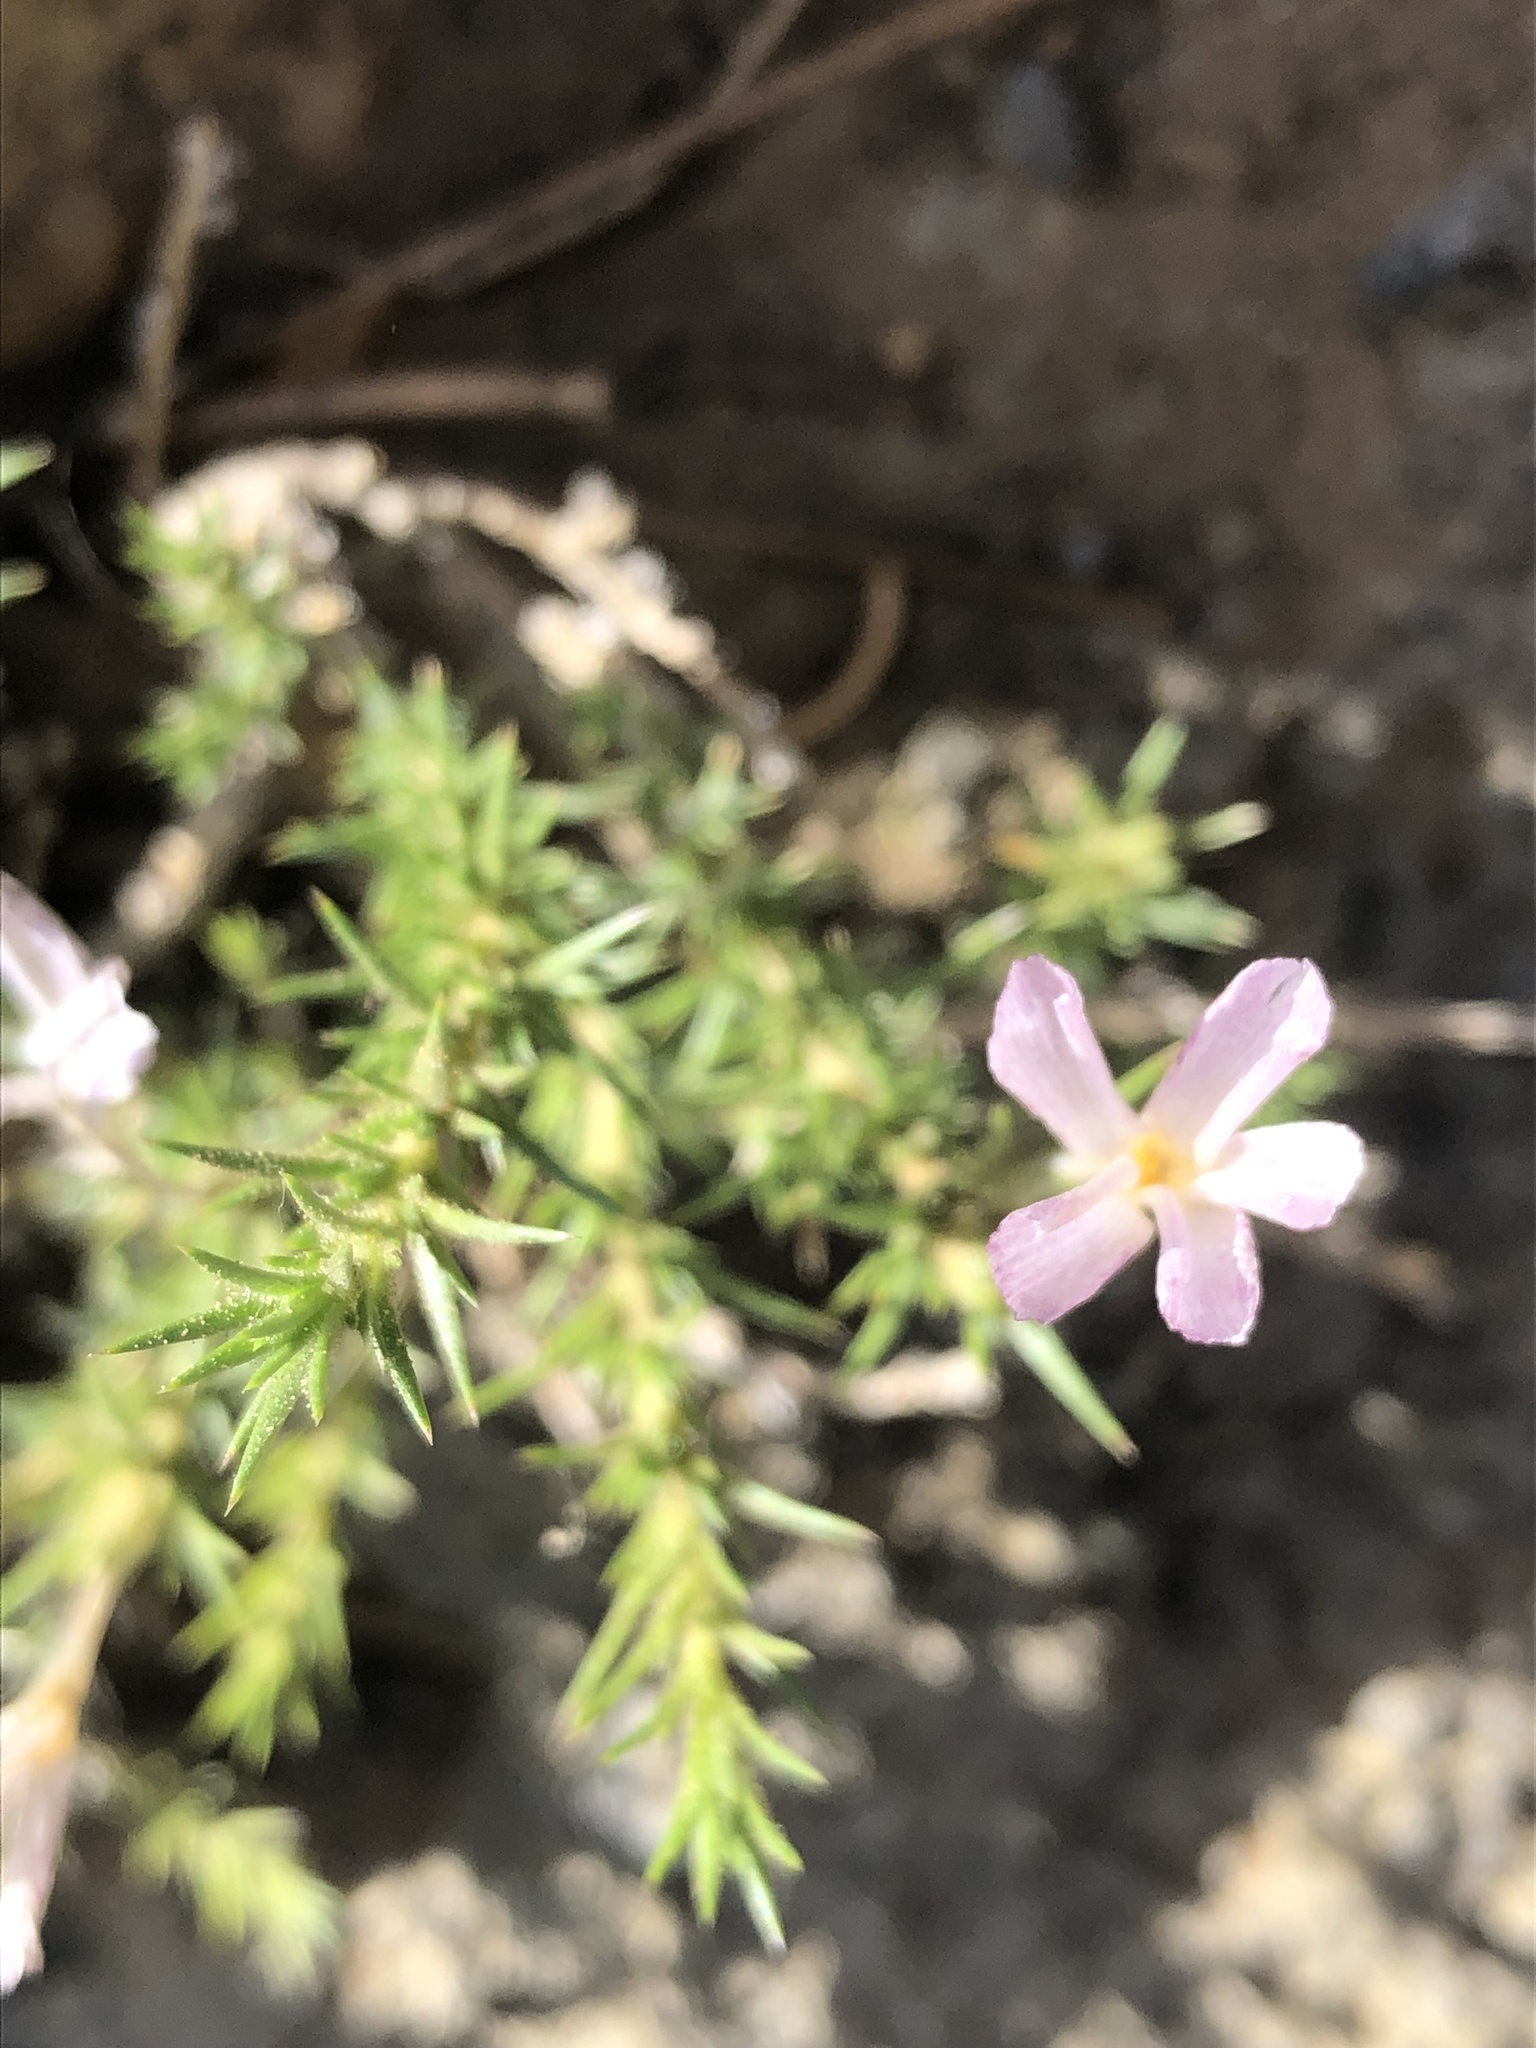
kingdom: Plantae
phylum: Tracheophyta
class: Magnoliopsida
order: Ericales
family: Polemoniaceae
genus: Linanthus
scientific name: Linanthus pungens
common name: Granite prickly phlox
